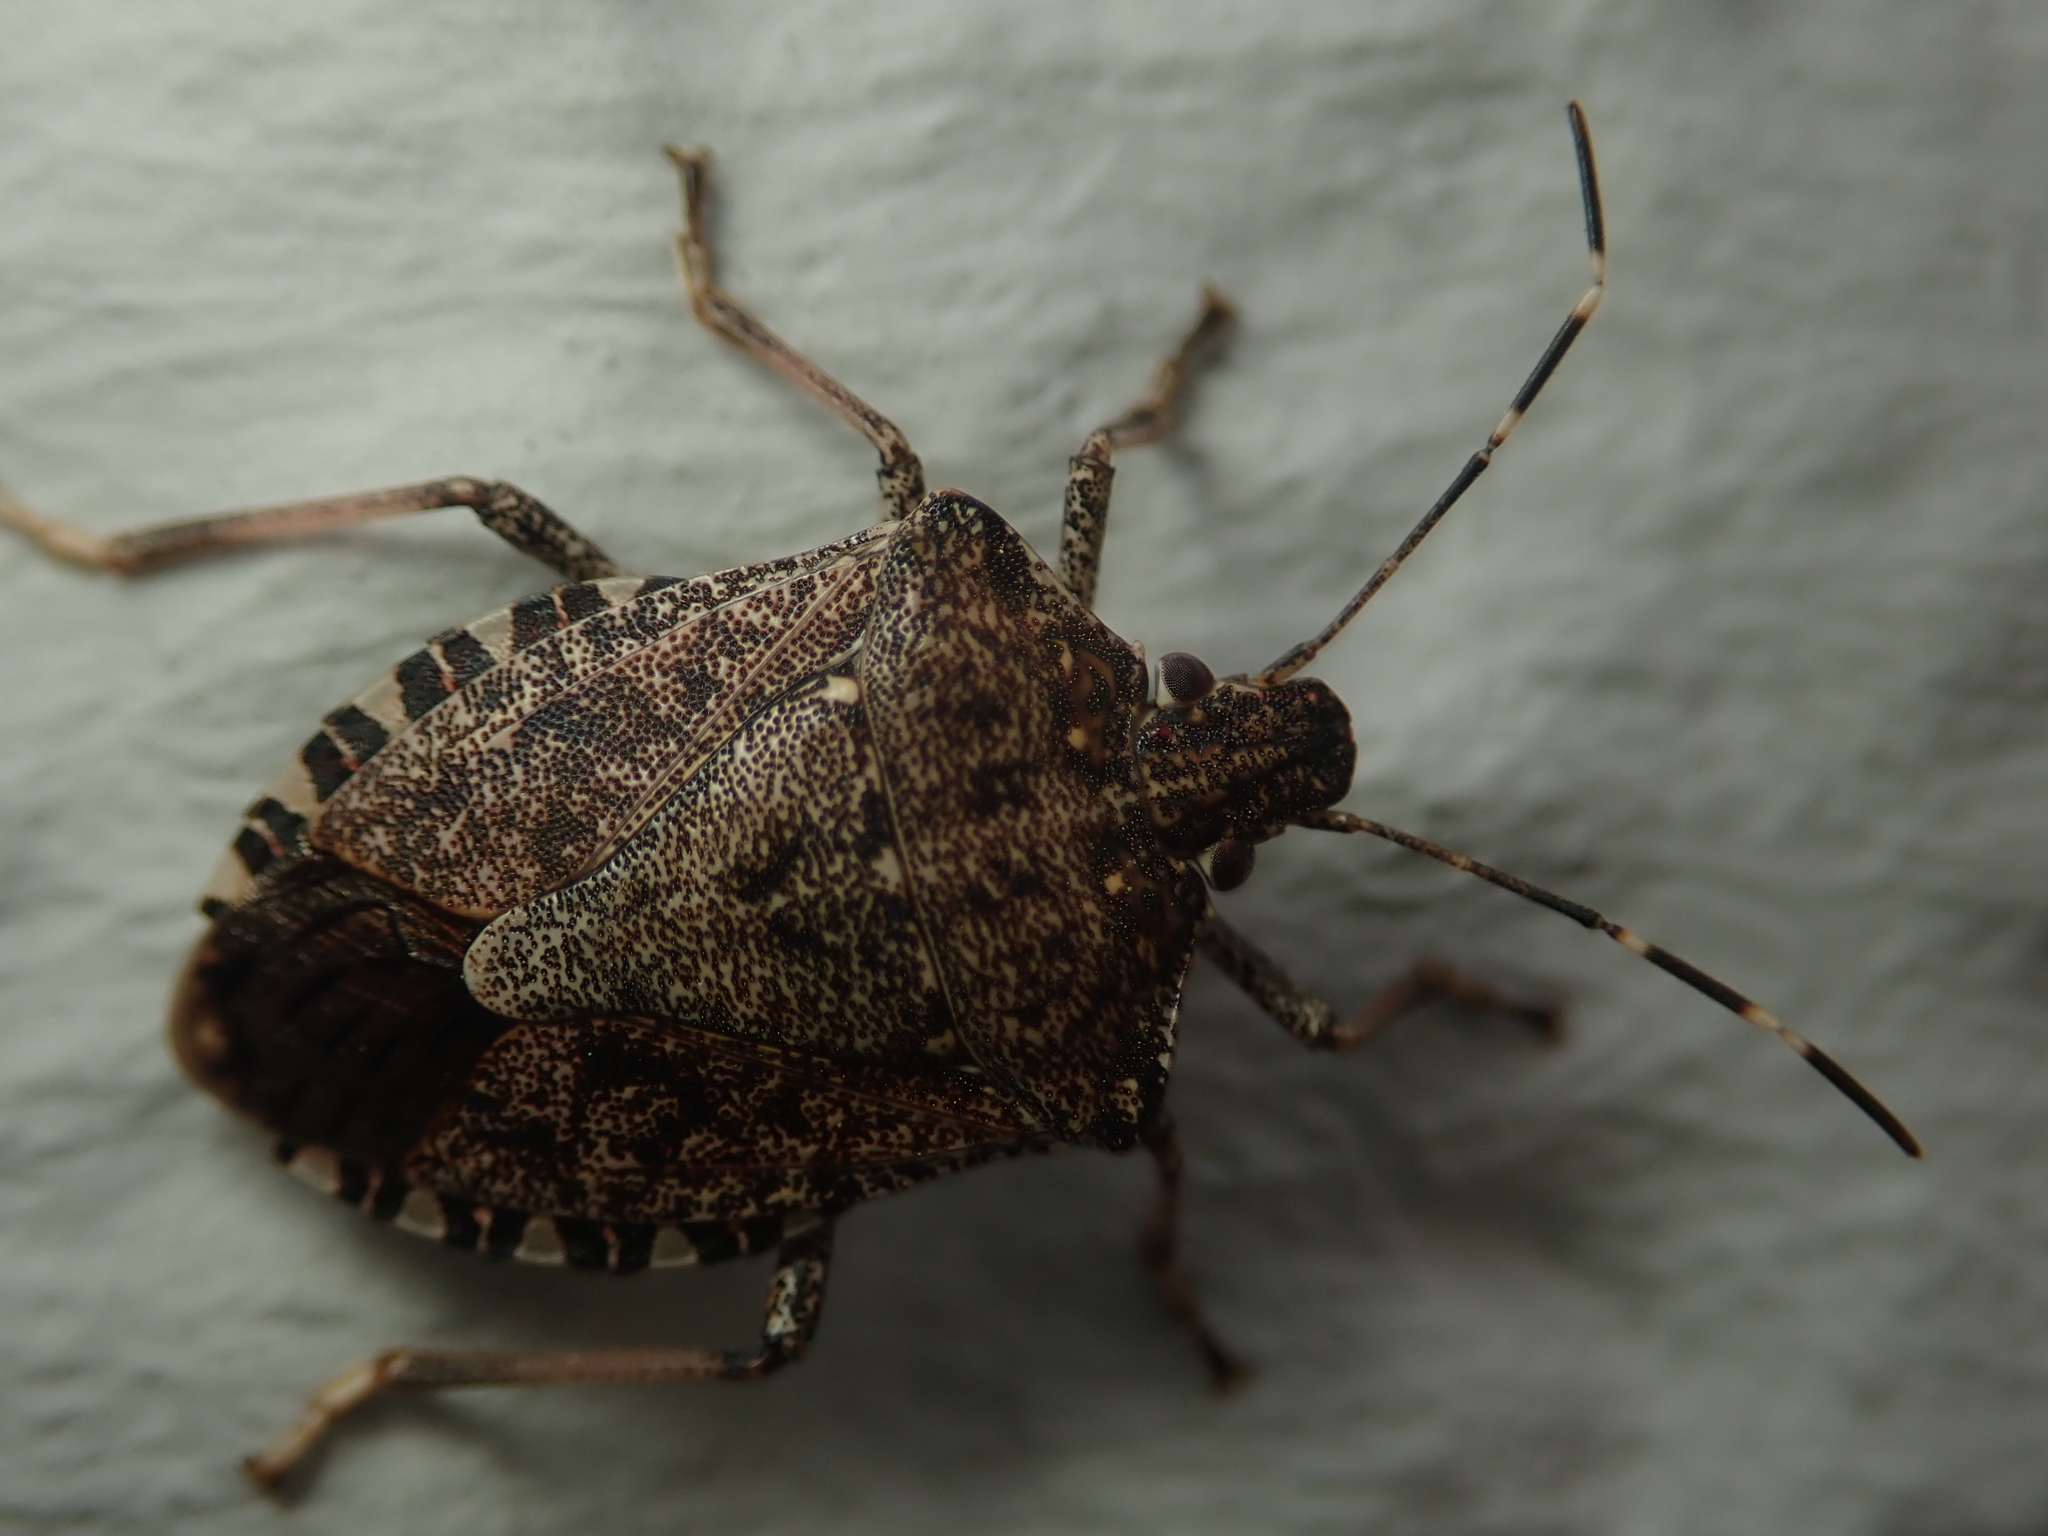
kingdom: Animalia
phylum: Arthropoda
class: Insecta
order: Hemiptera
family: Pentatomidae
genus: Halyomorpha
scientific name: Halyomorpha halys
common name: Brown marmorated stink bug
